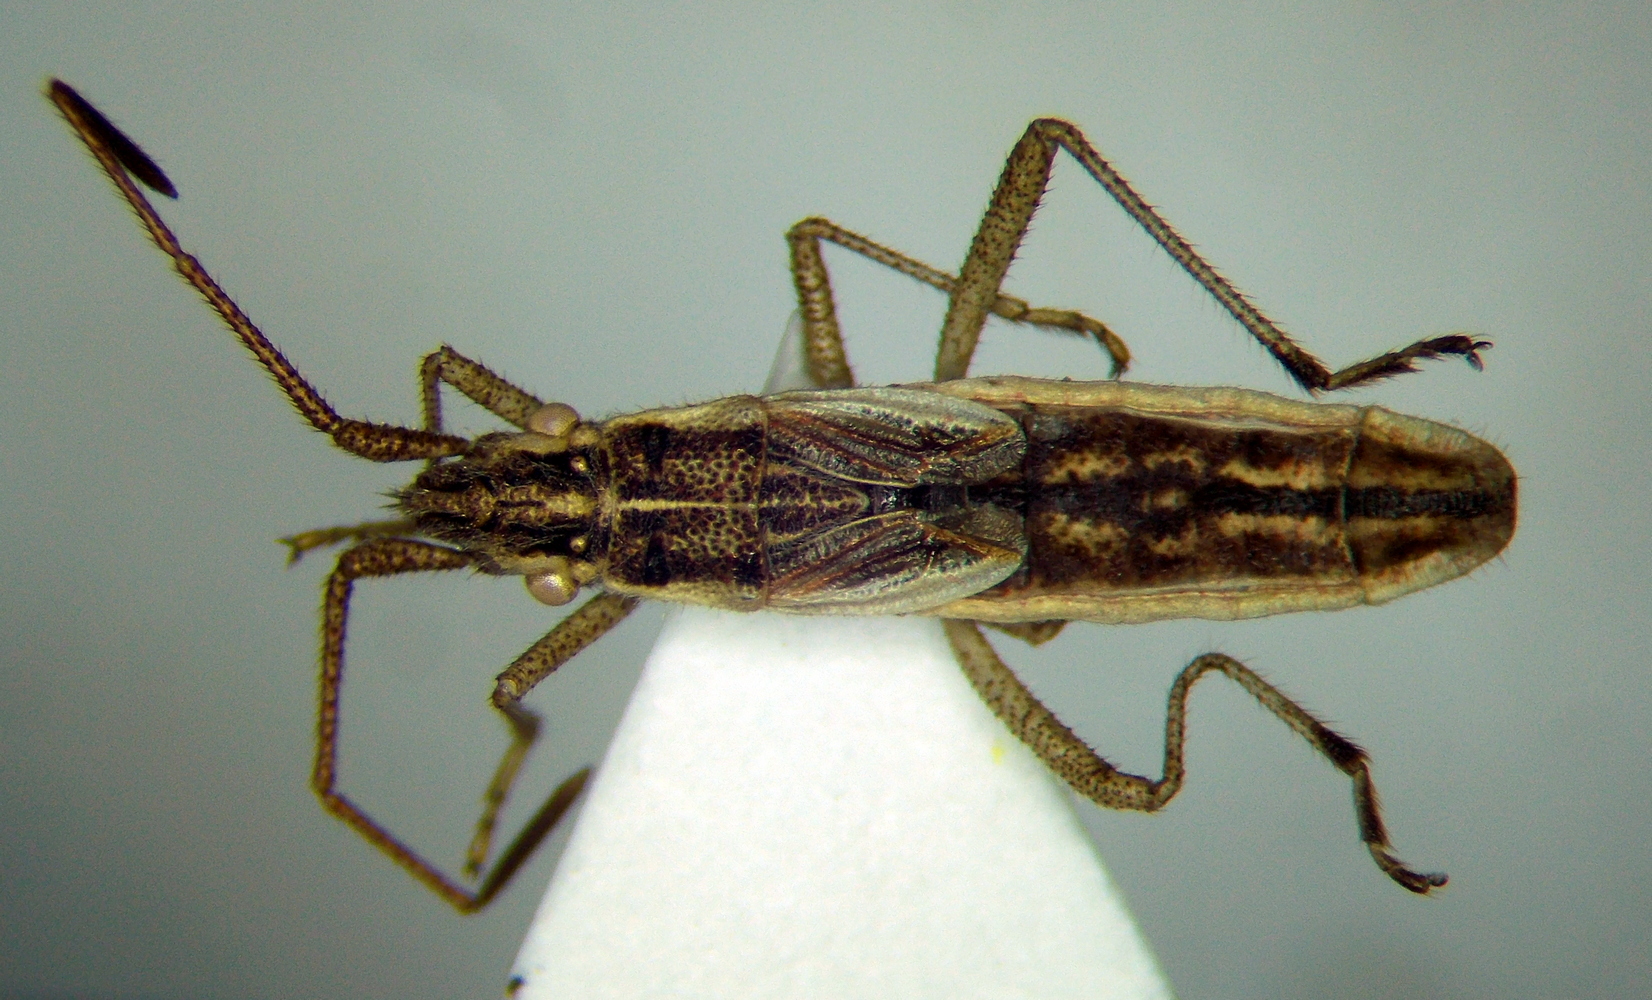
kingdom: Animalia
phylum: Arthropoda
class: Insecta
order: Hemiptera
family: Rhopalidae
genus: Myrmus
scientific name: Myrmus miriformis
